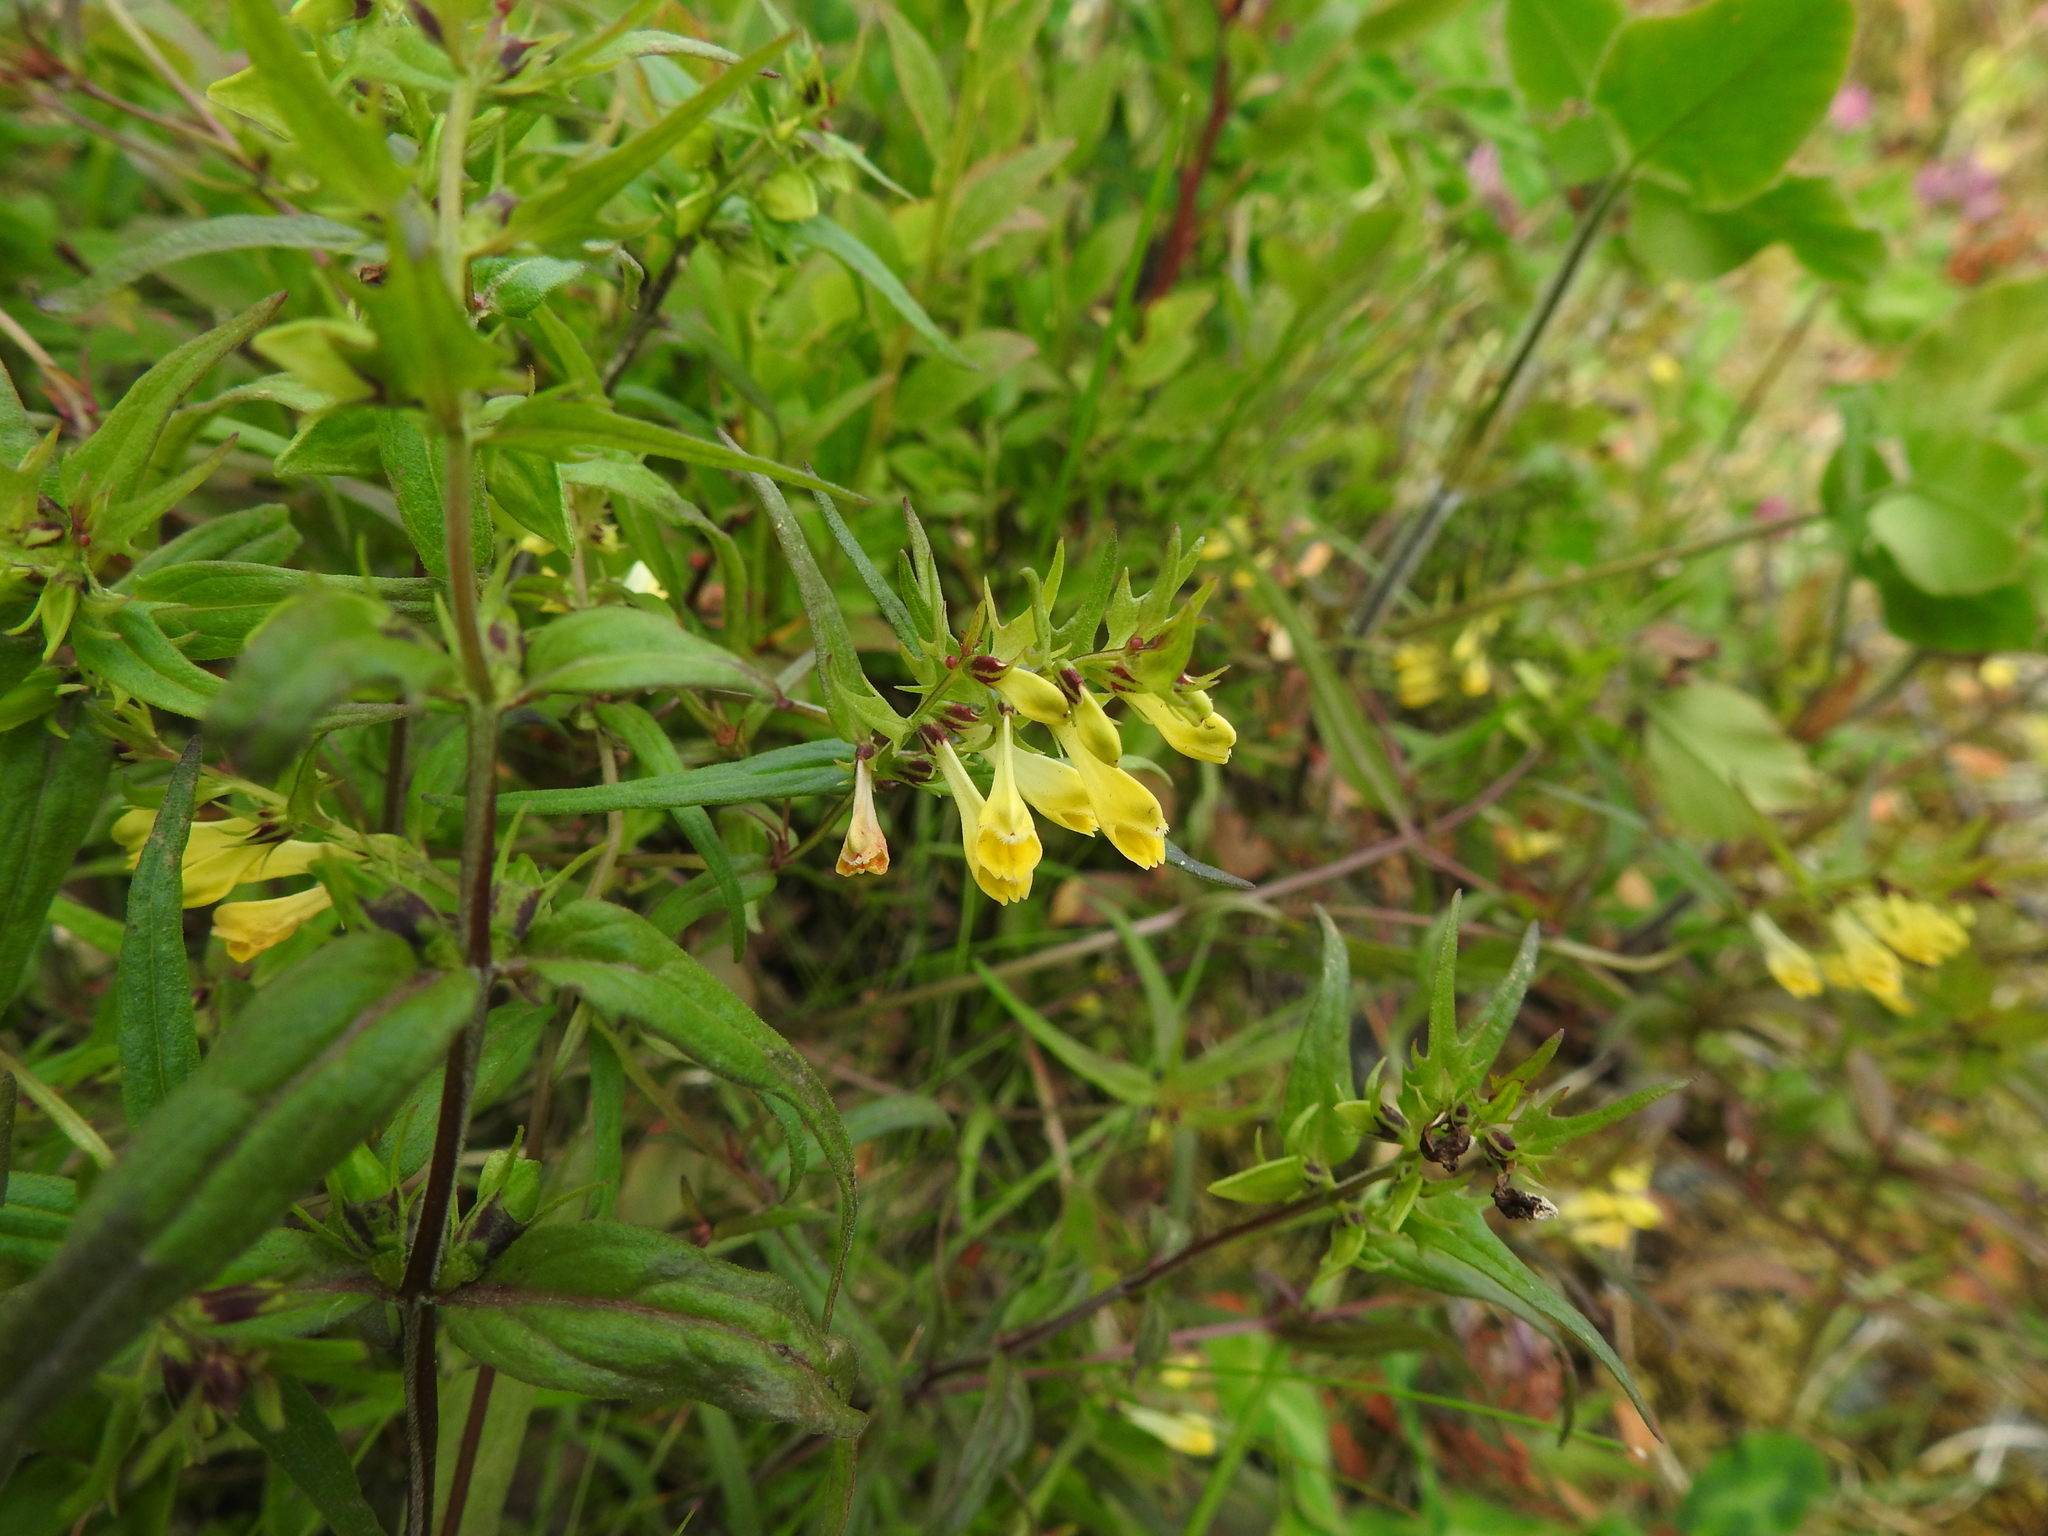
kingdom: Plantae
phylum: Tracheophyta
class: Magnoliopsida
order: Lamiales
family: Orobanchaceae
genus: Melampyrum
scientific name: Melampyrum pratense
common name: Common cow-wheat
